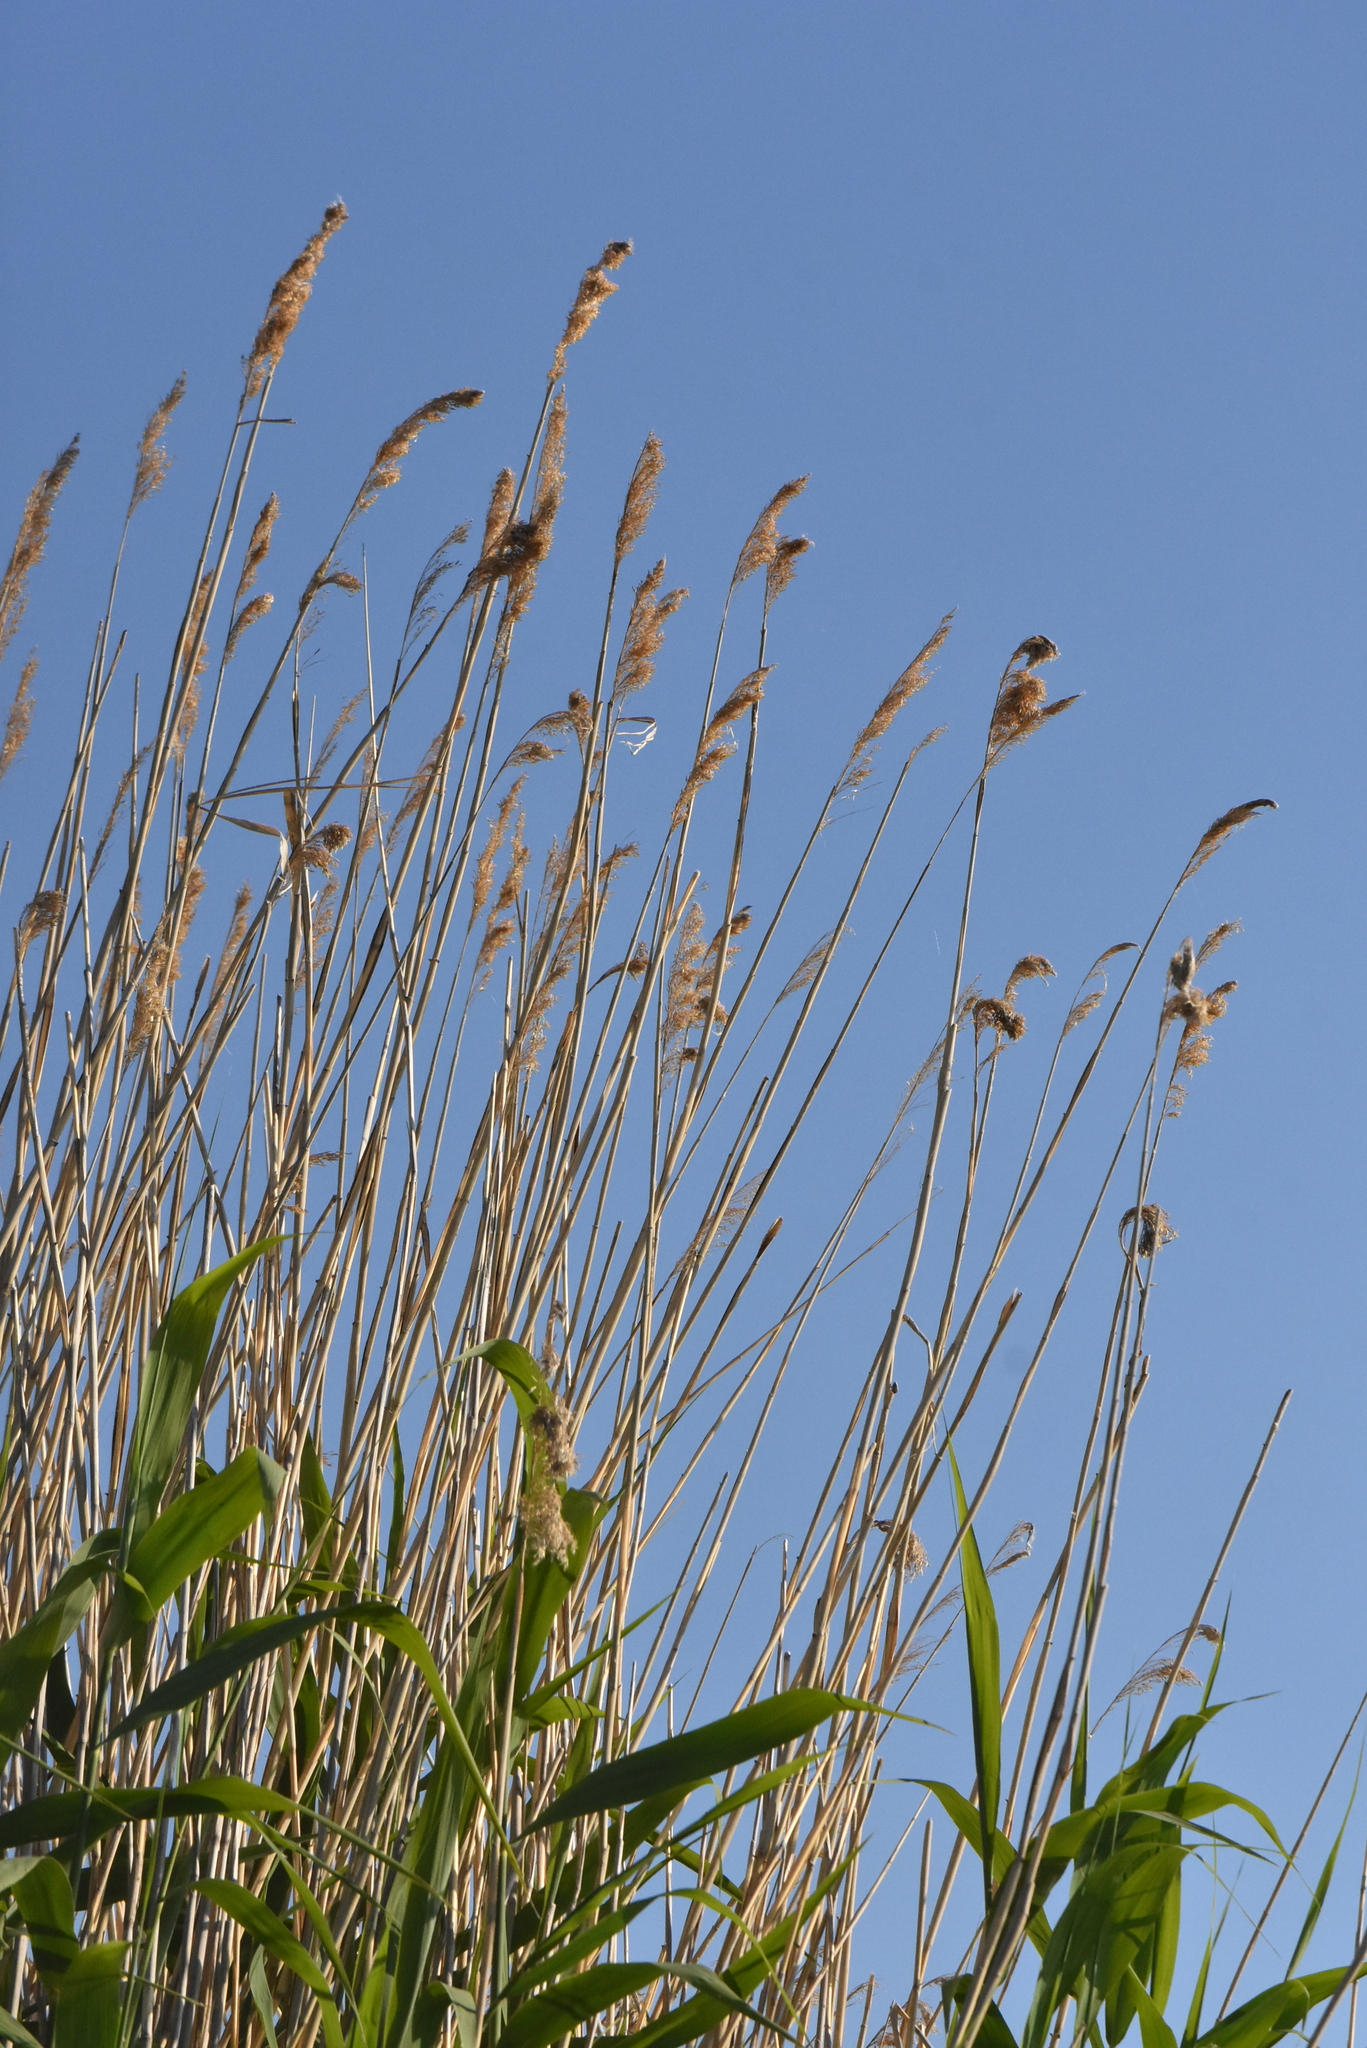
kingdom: Plantae
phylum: Tracheophyta
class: Liliopsida
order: Poales
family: Poaceae
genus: Phragmites
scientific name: Phragmites australis
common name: Common reed
